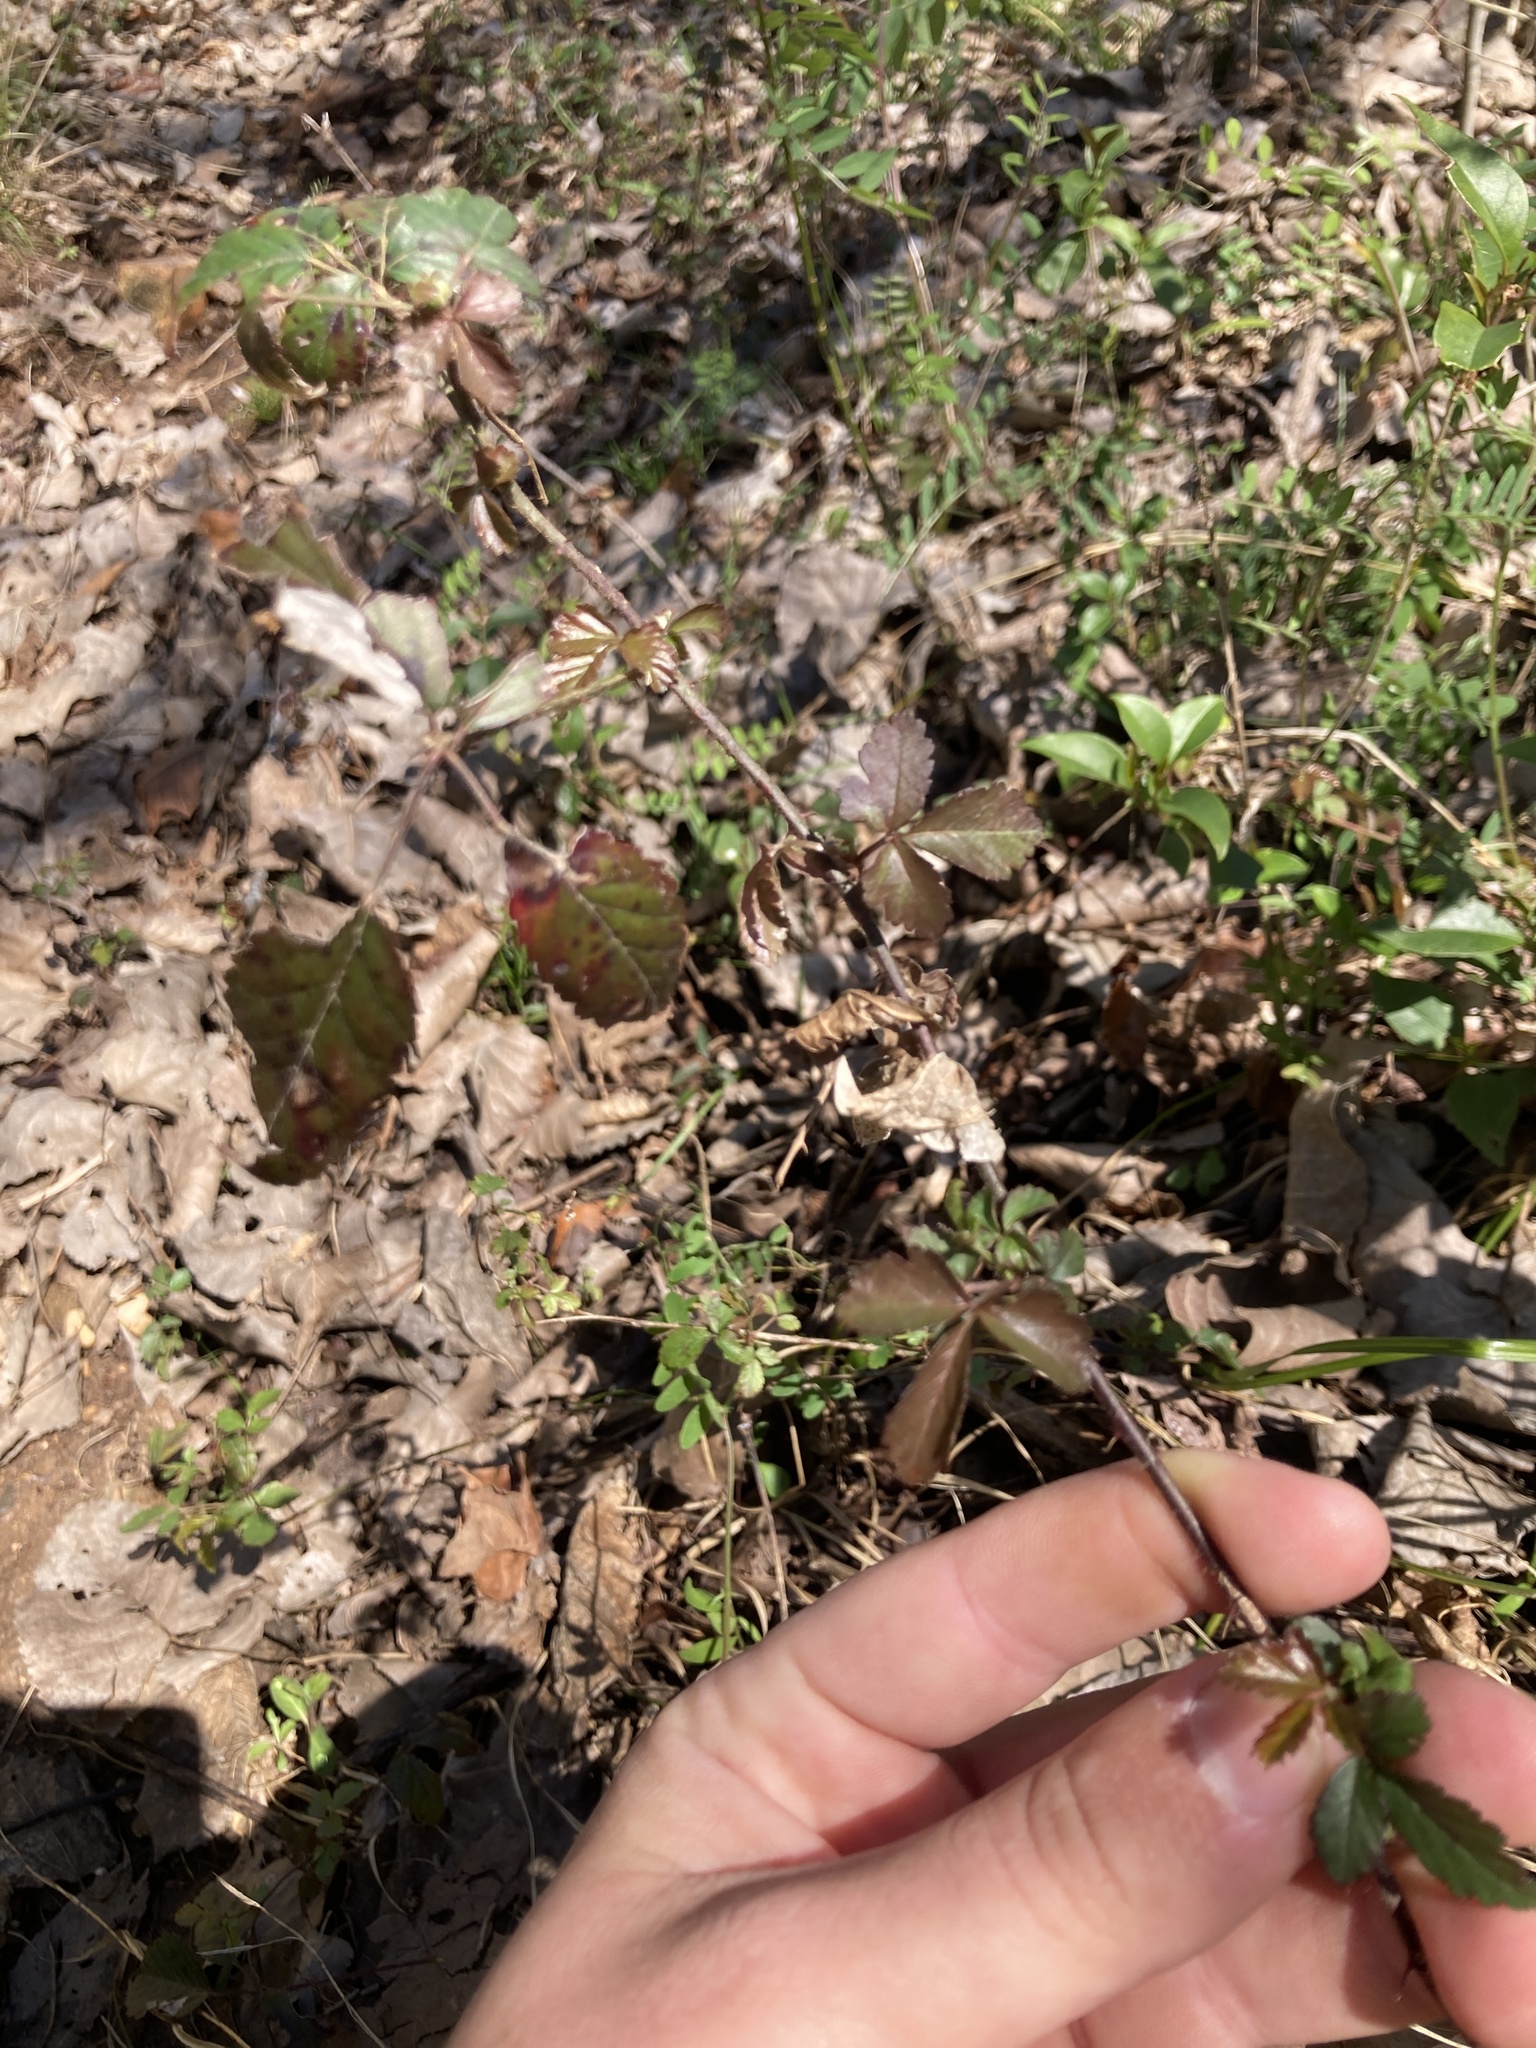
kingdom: Plantae
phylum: Tracheophyta
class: Magnoliopsida
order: Rosales
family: Rosaceae
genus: Rubus
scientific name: Rubus trivialis
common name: Southern dewberry
